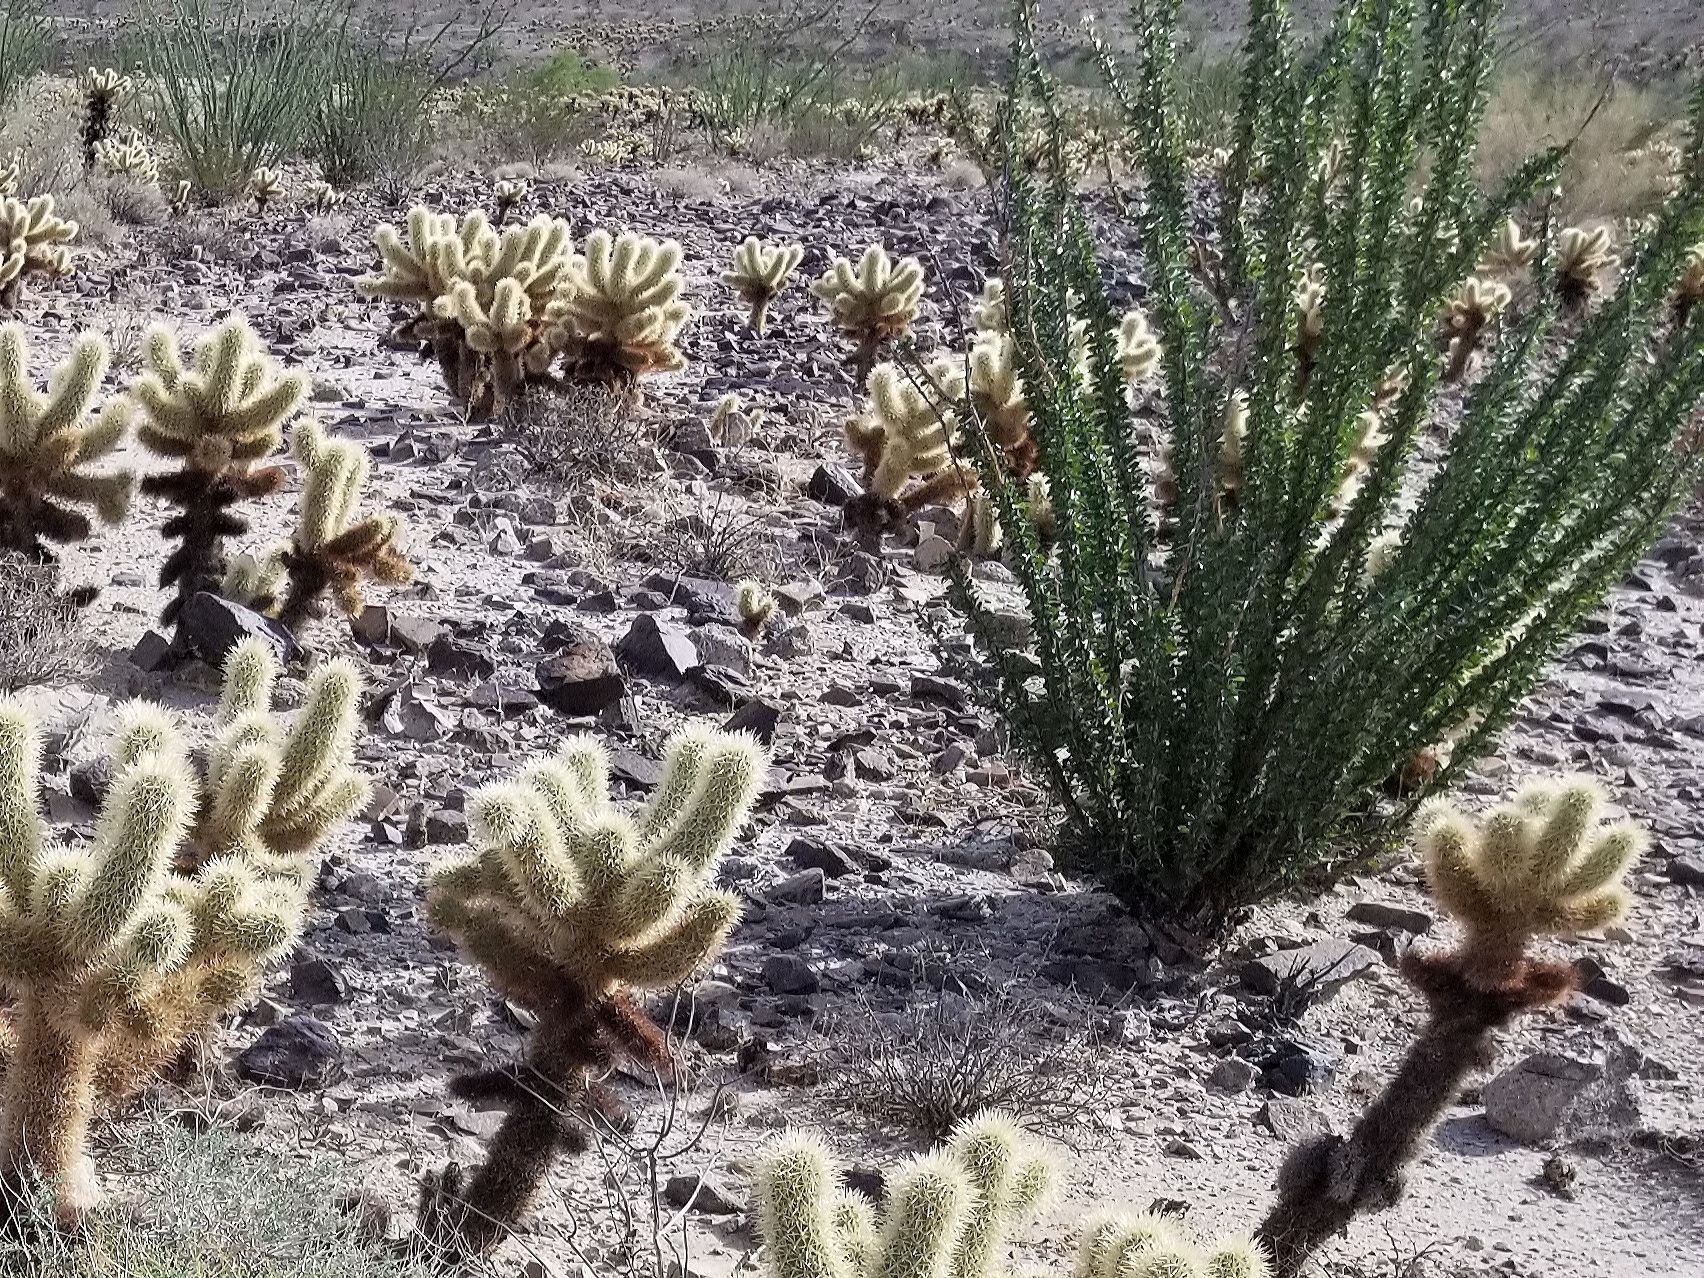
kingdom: Plantae
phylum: Tracheophyta
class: Magnoliopsida
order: Ericales
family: Fouquieriaceae
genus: Fouquieria
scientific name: Fouquieria splendens
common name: Vine-cactus
